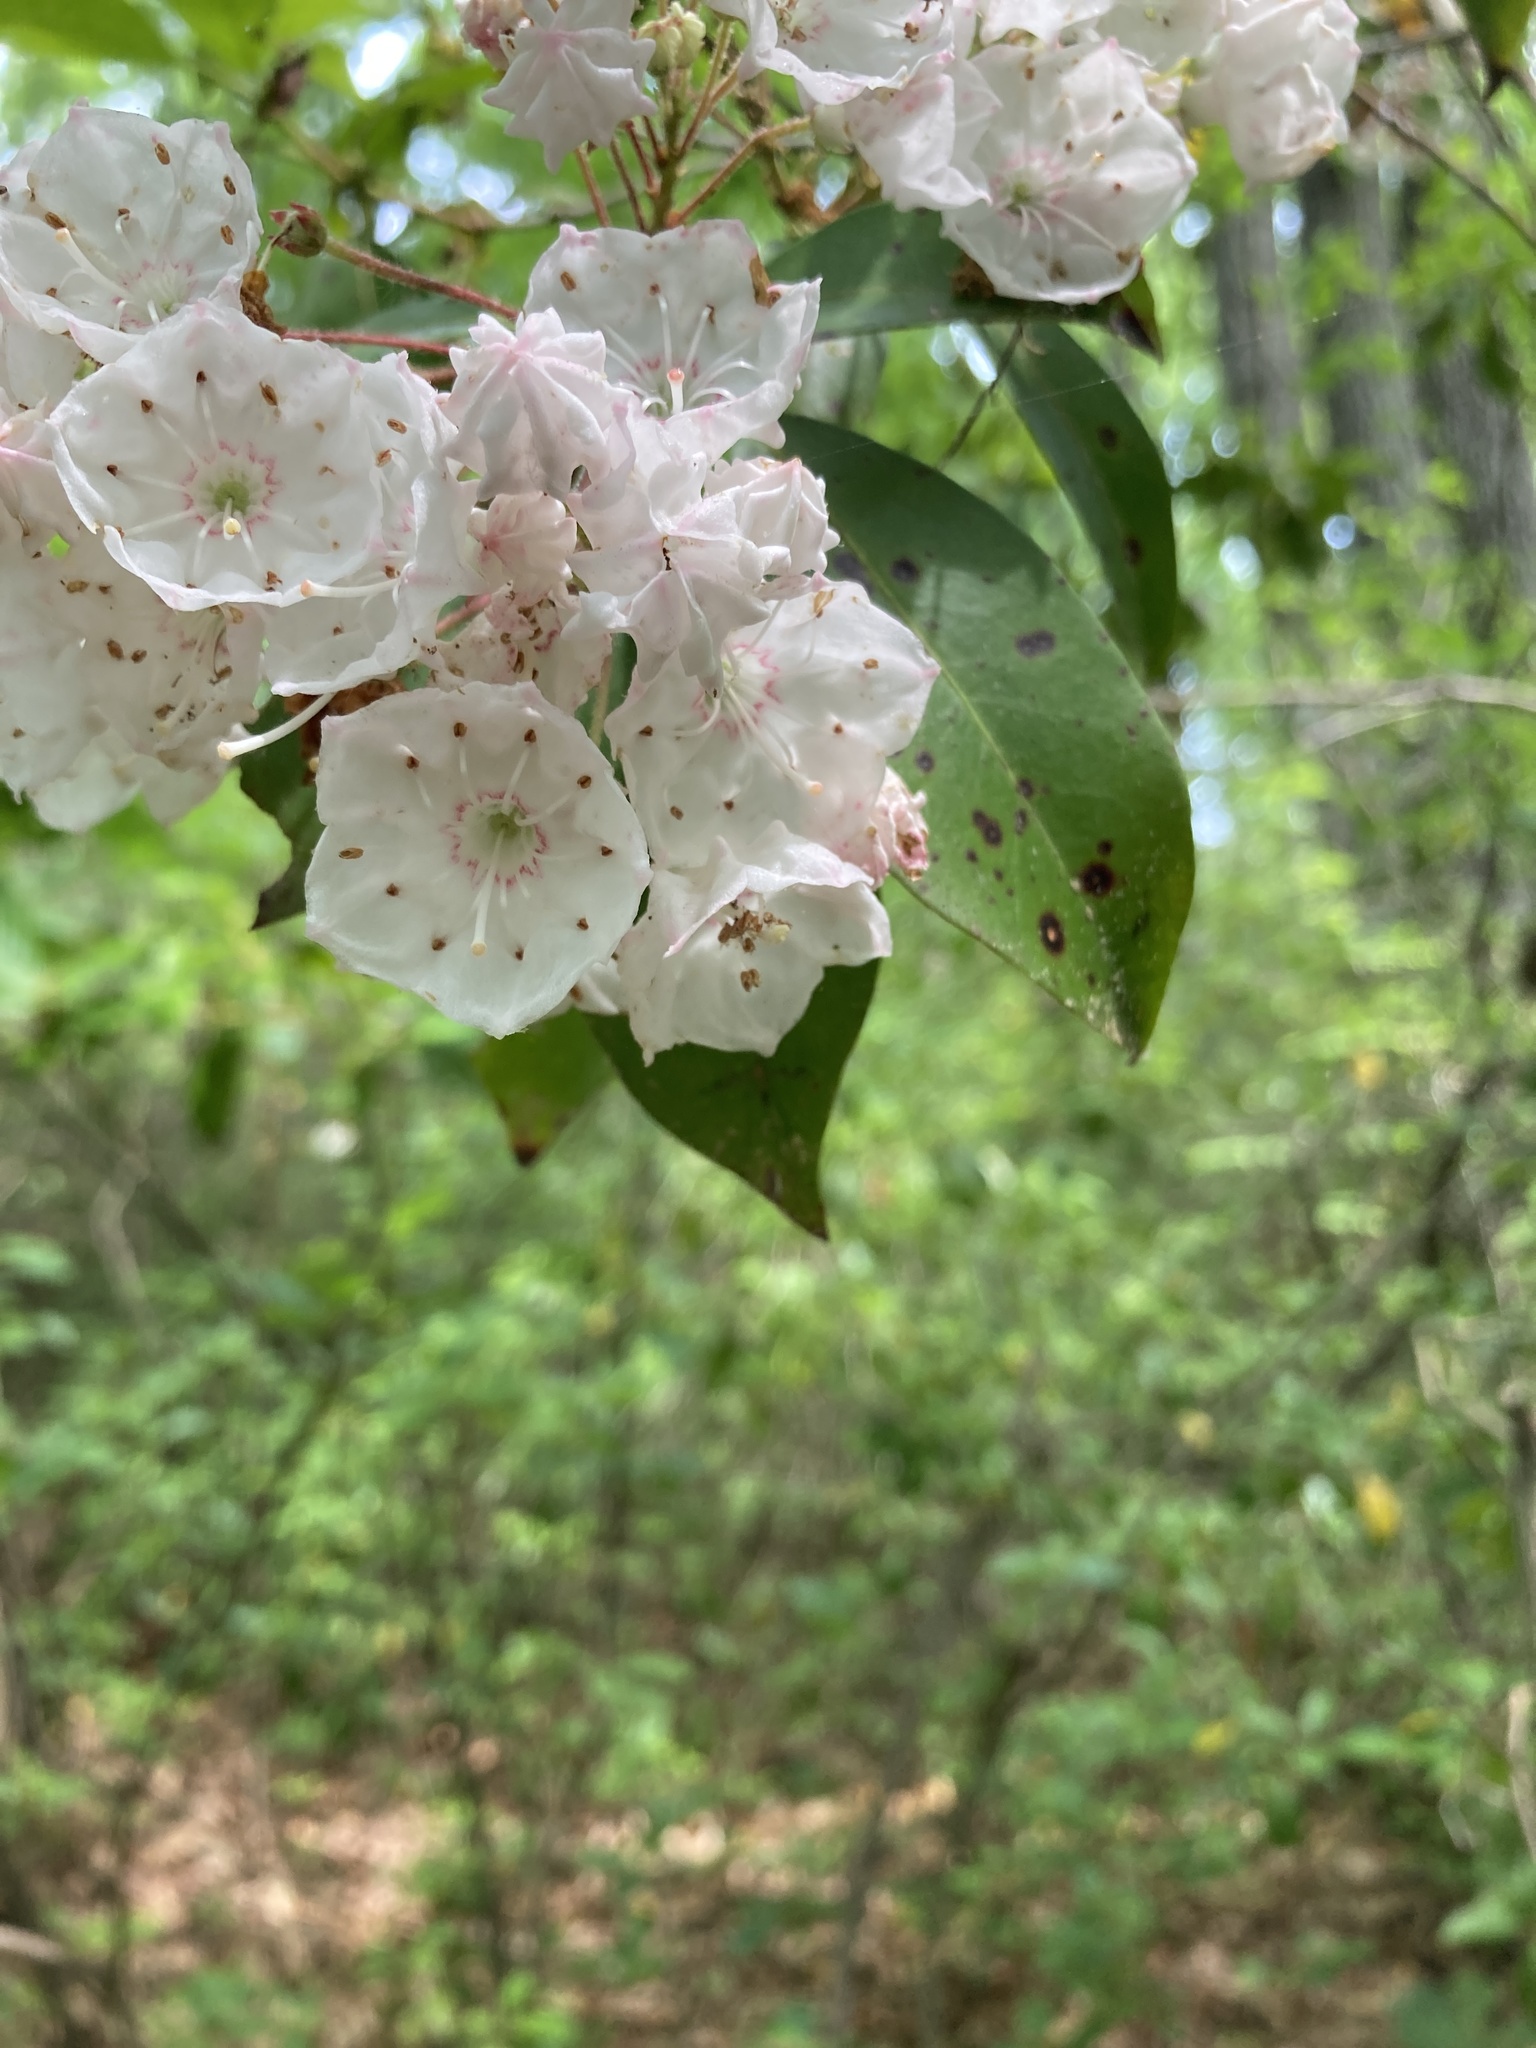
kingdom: Plantae
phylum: Tracheophyta
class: Magnoliopsida
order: Ericales
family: Ericaceae
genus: Kalmia
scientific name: Kalmia latifolia
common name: Mountain-laurel
